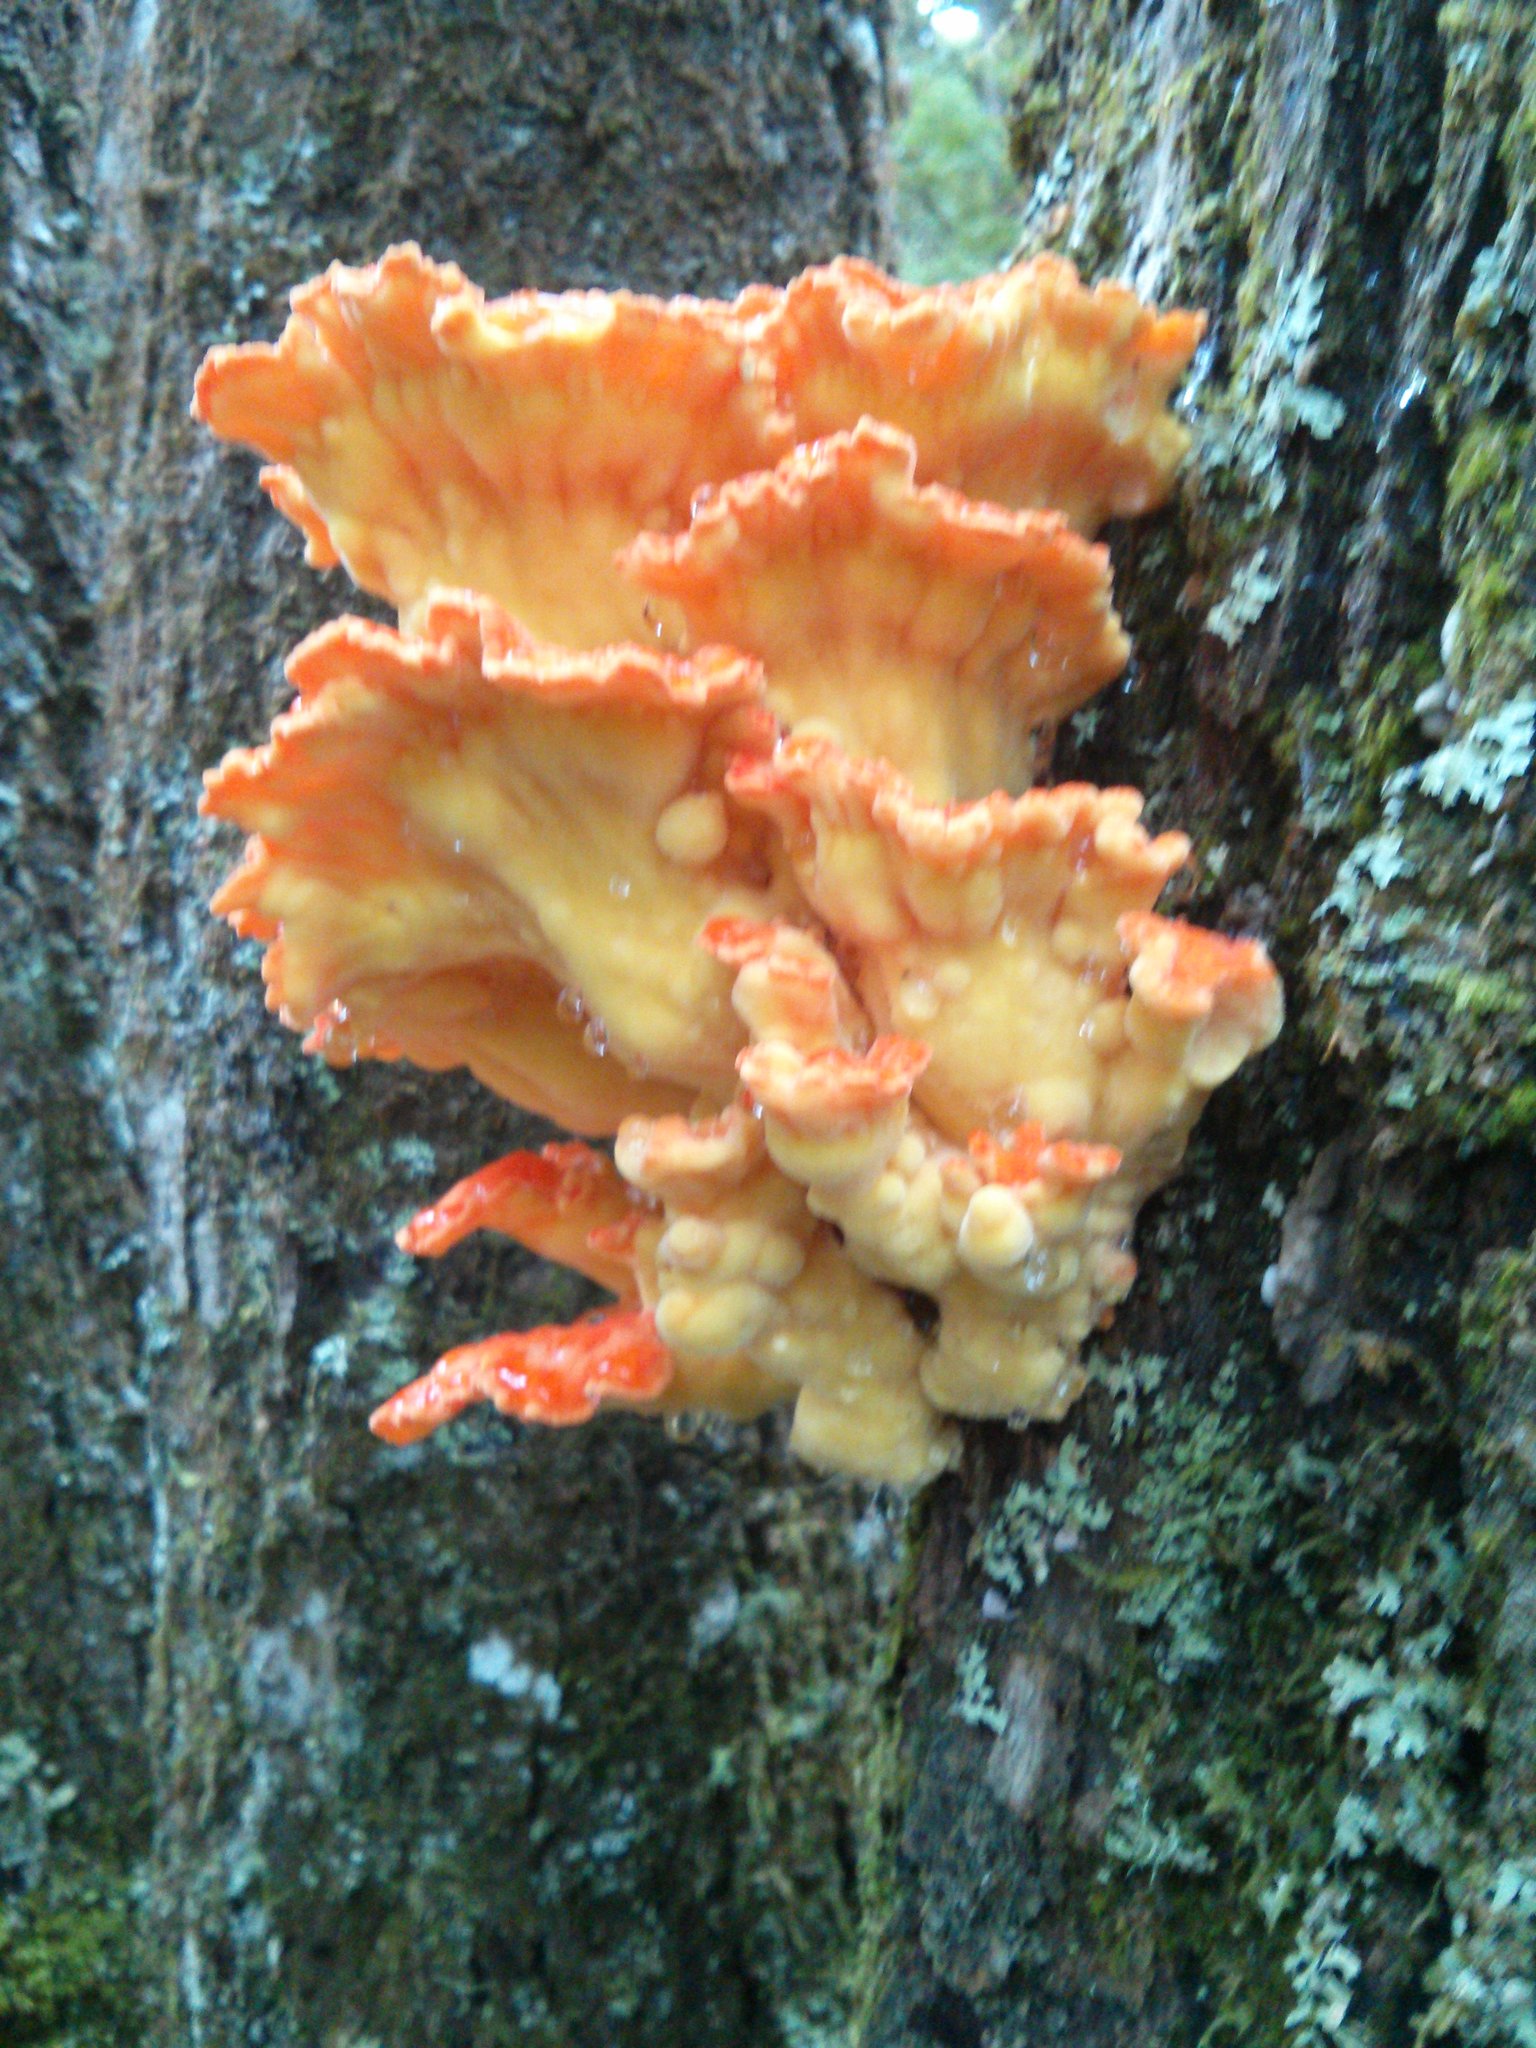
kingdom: Fungi
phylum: Basidiomycota
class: Agaricomycetes
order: Polyporales
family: Laetiporaceae
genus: Laetiporus
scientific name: Laetiporus sulphureus
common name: Chicken of the woods
